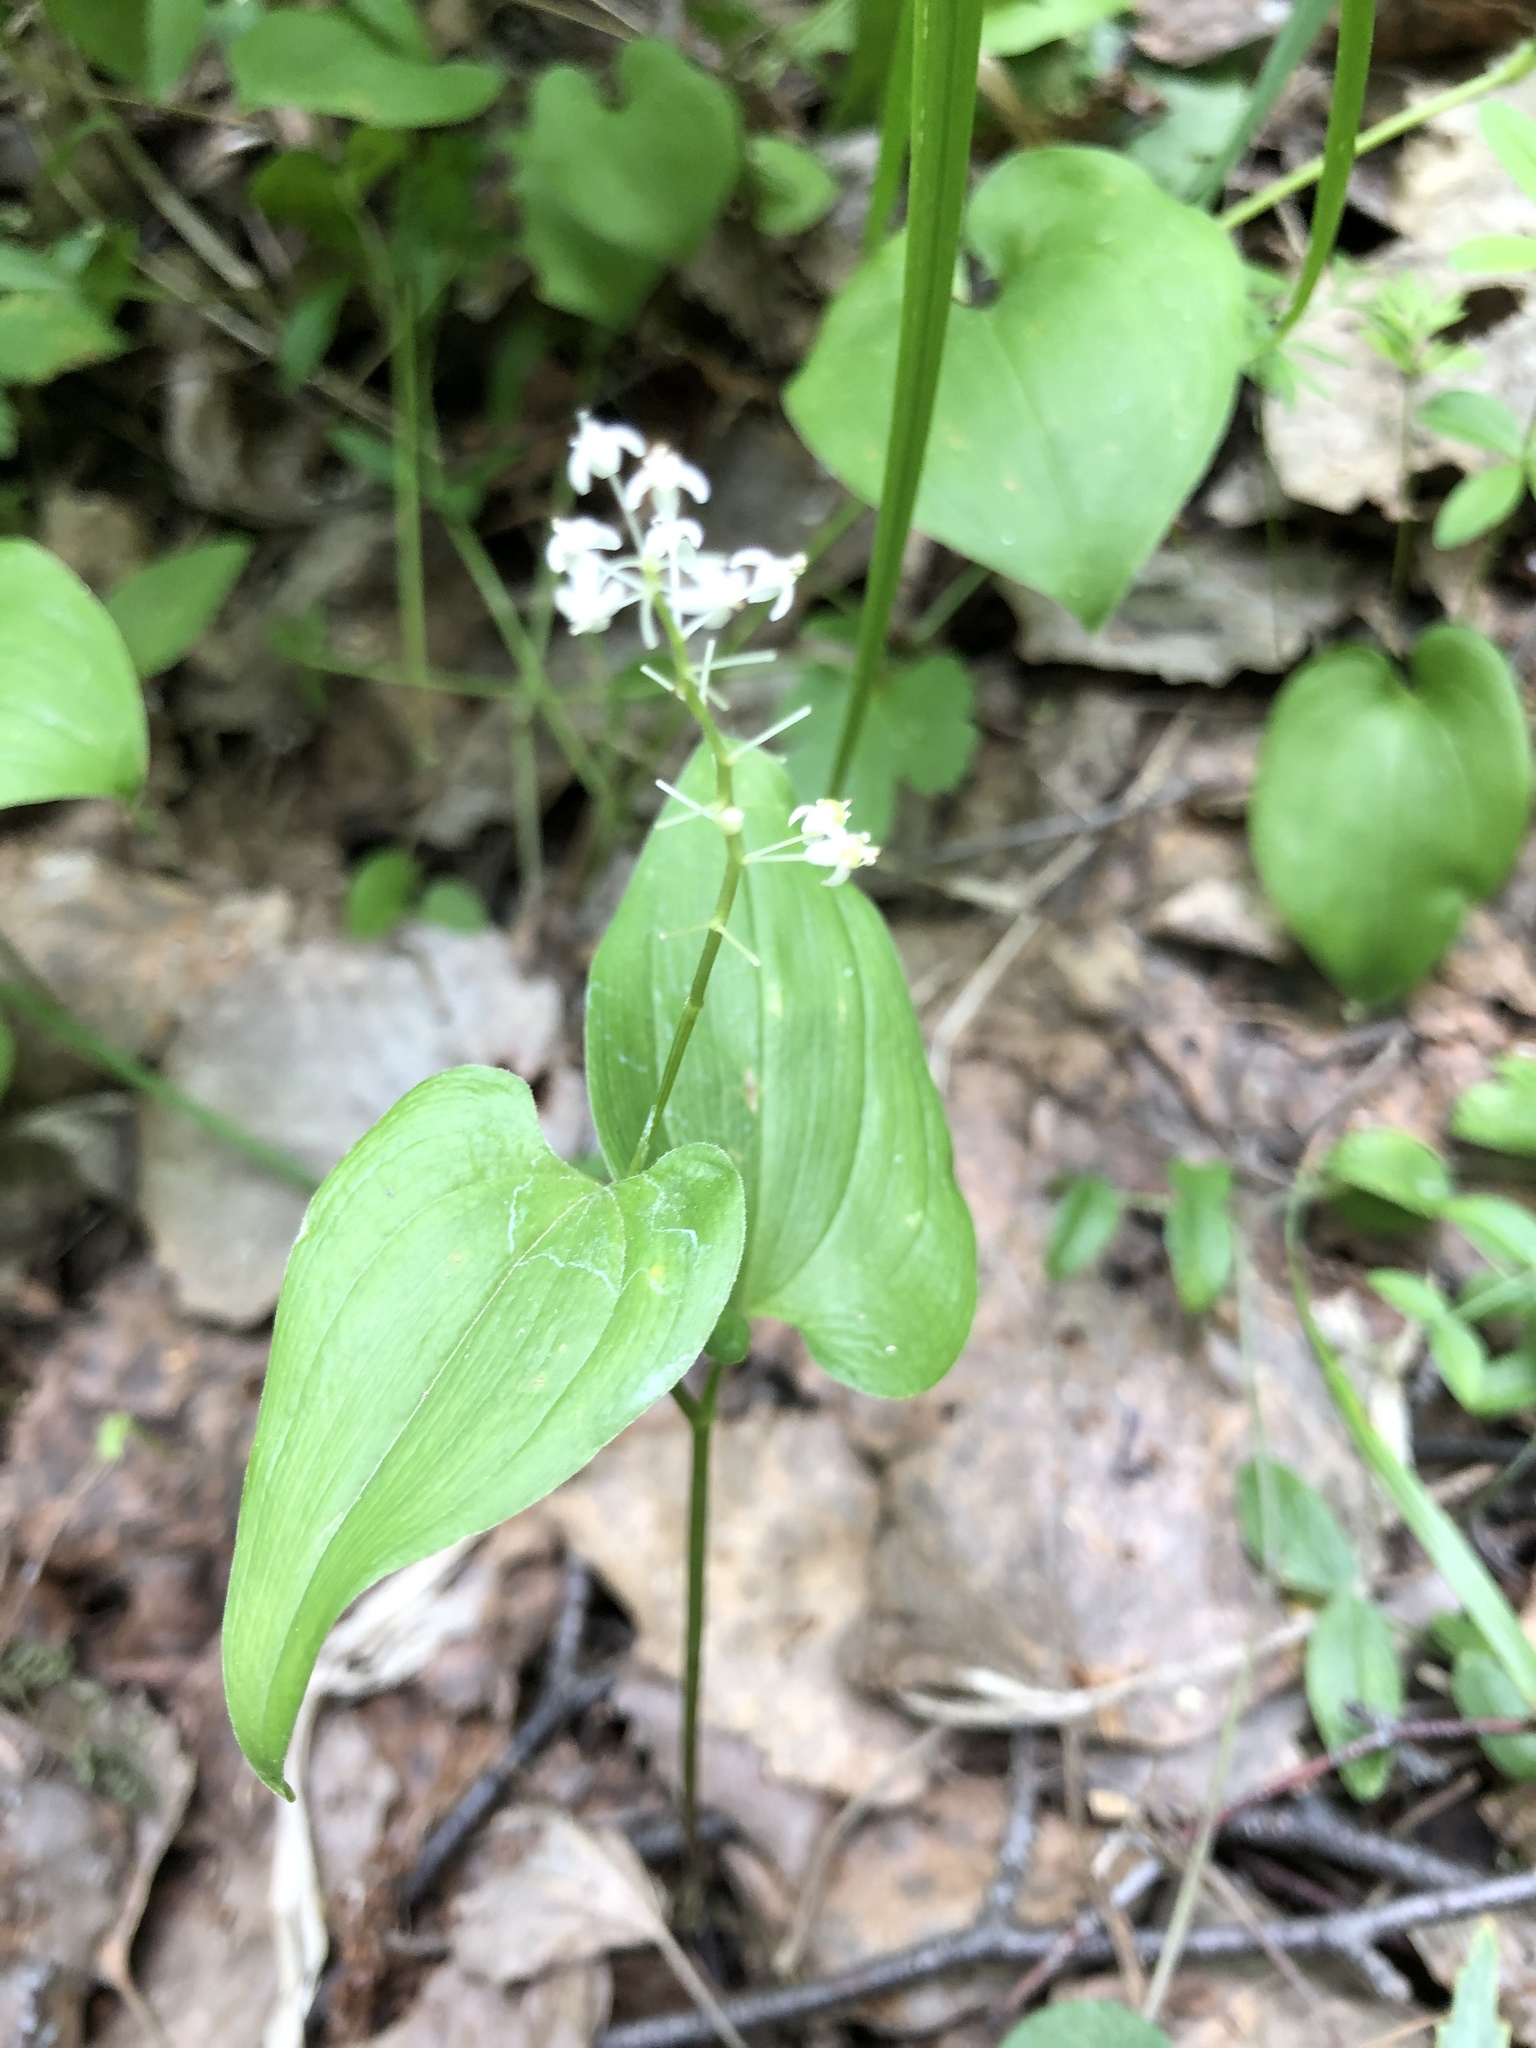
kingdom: Plantae
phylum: Tracheophyta
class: Liliopsida
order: Asparagales
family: Asparagaceae
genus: Maianthemum
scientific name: Maianthemum bifolium
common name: May lily
